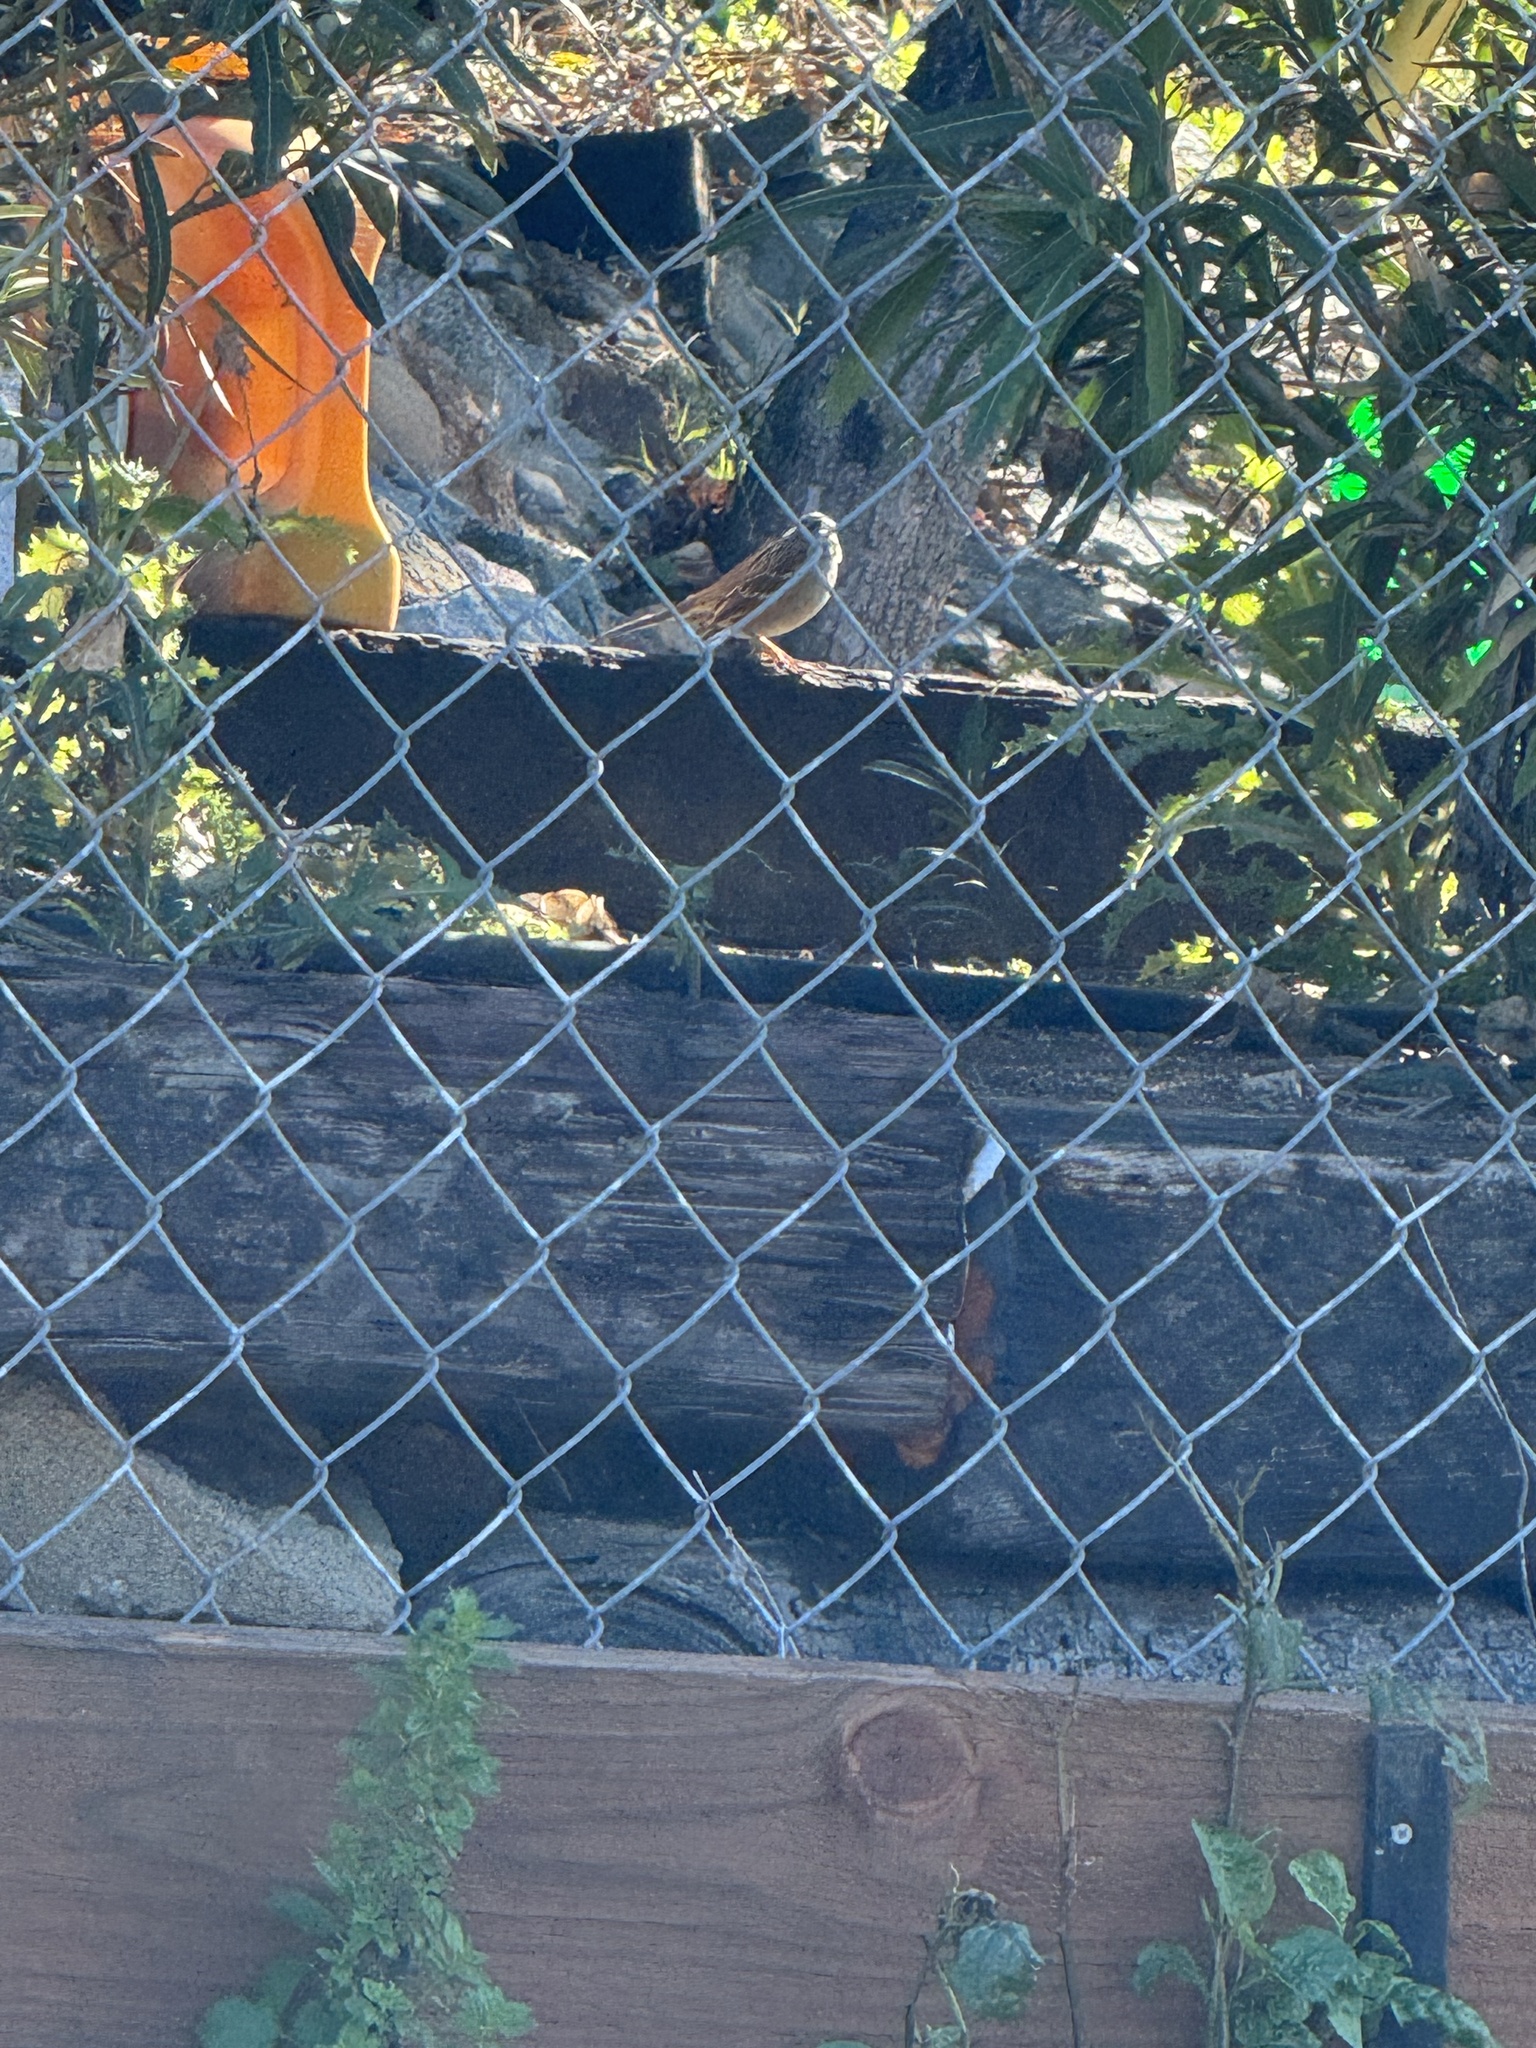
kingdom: Animalia
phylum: Chordata
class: Aves
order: Passeriformes
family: Passerellidae
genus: Zonotrichia
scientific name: Zonotrichia leucophrys
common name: White-crowned sparrow
